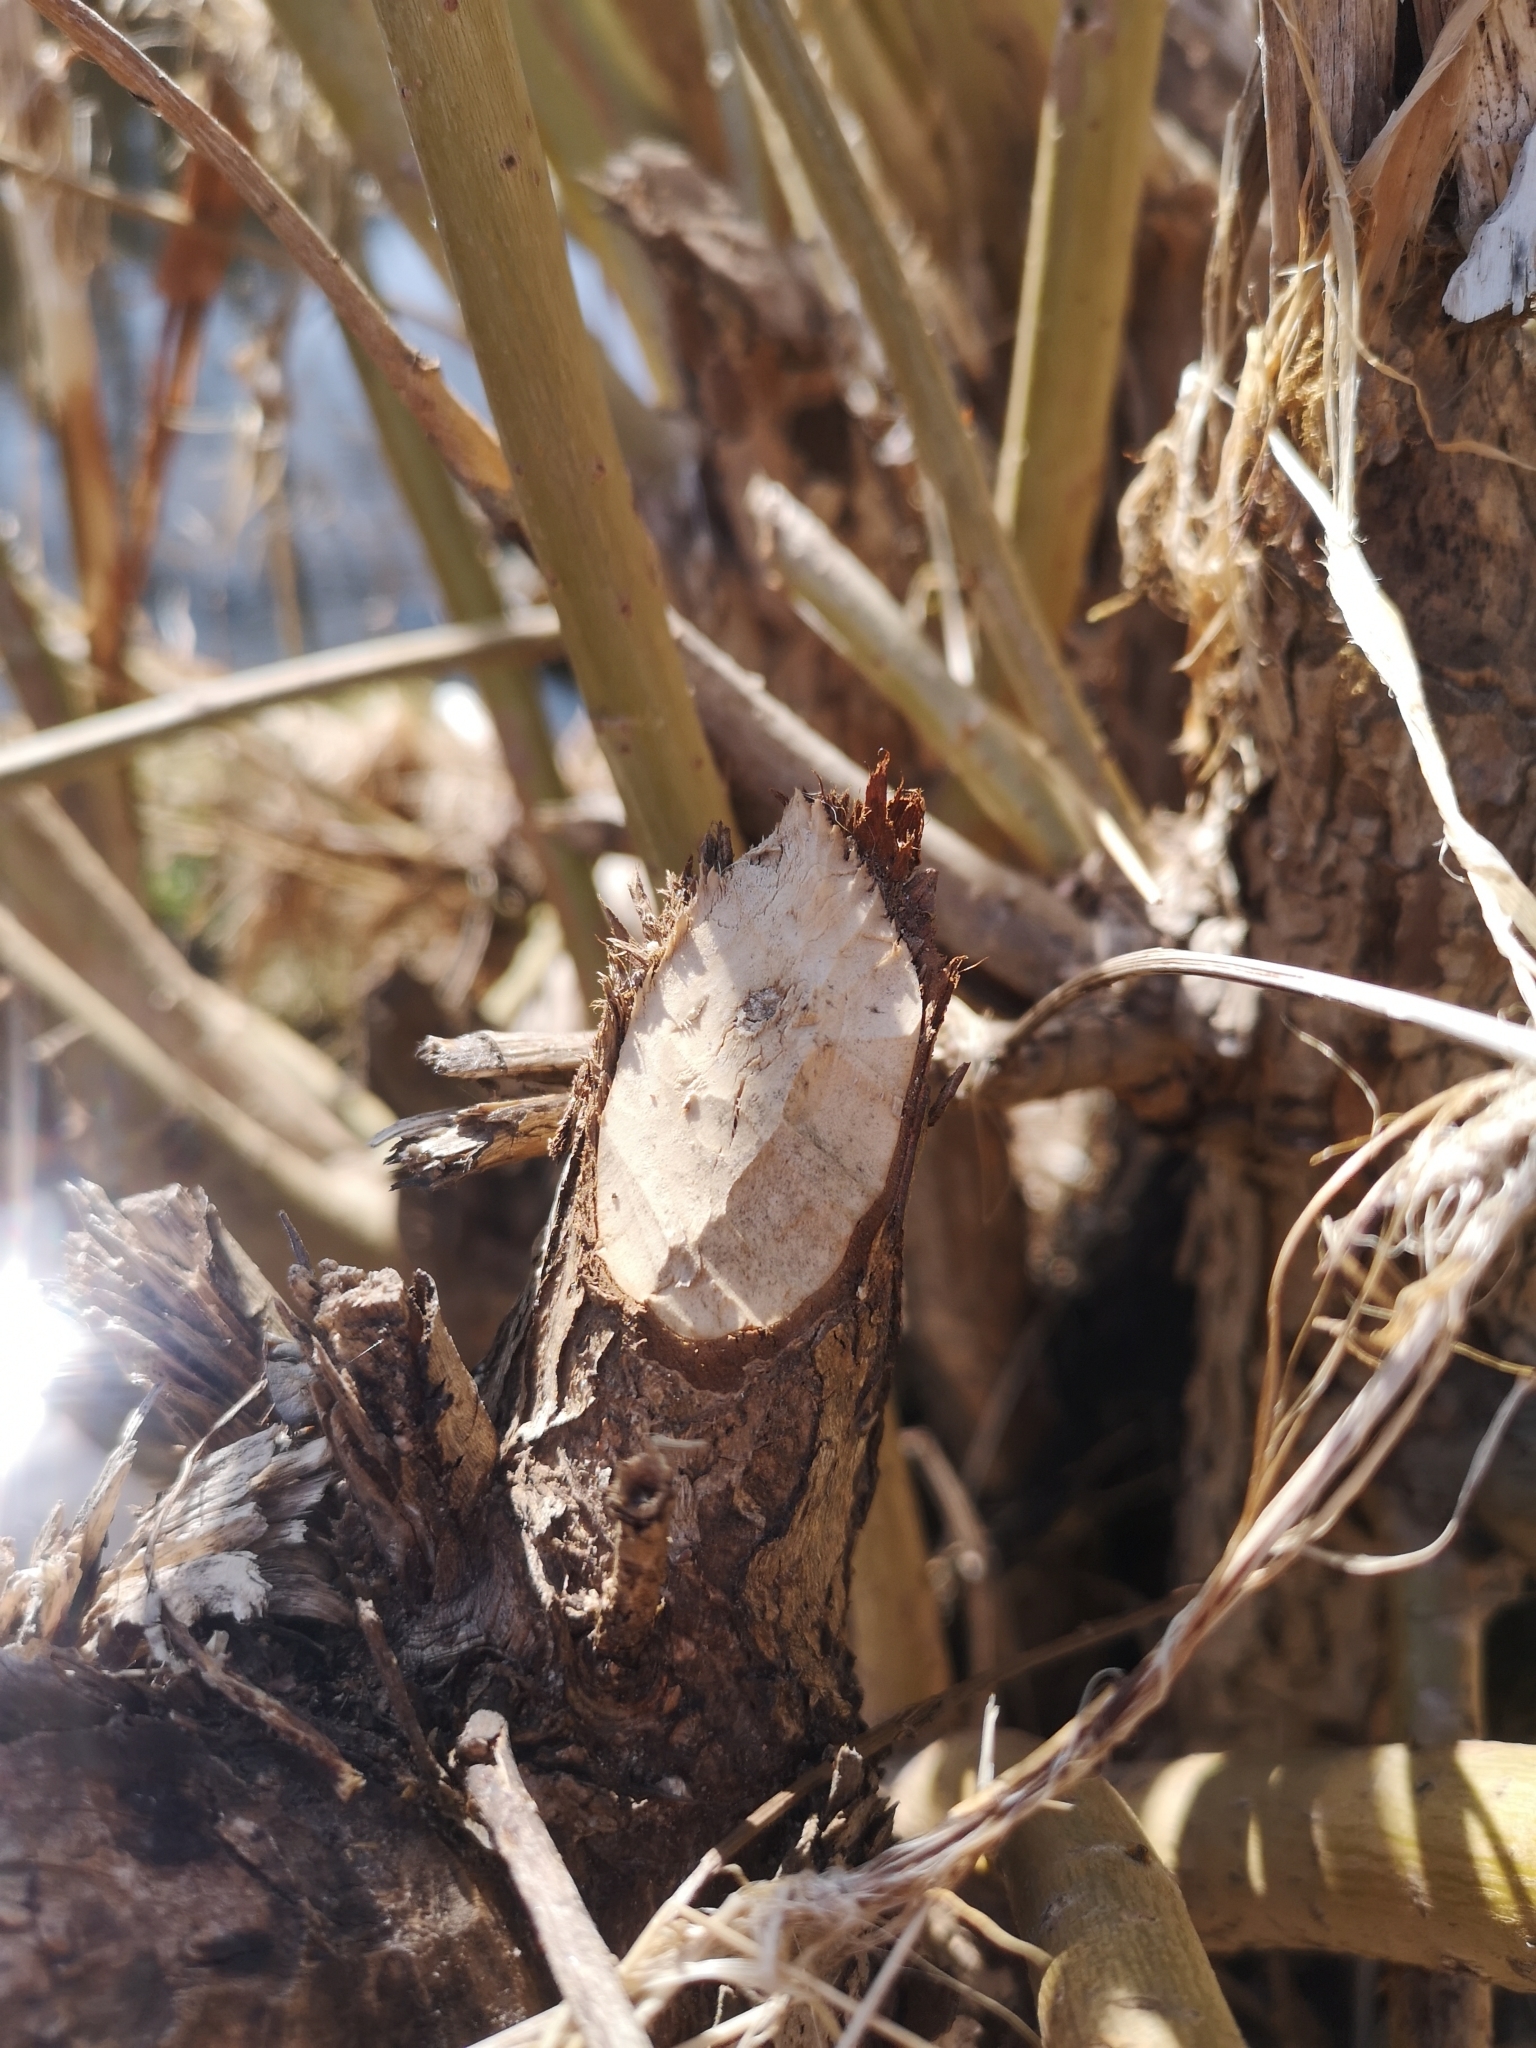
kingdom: Animalia
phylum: Chordata
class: Mammalia
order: Rodentia
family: Castoridae
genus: Castor
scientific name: Castor fiber
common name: Eurasian beaver
